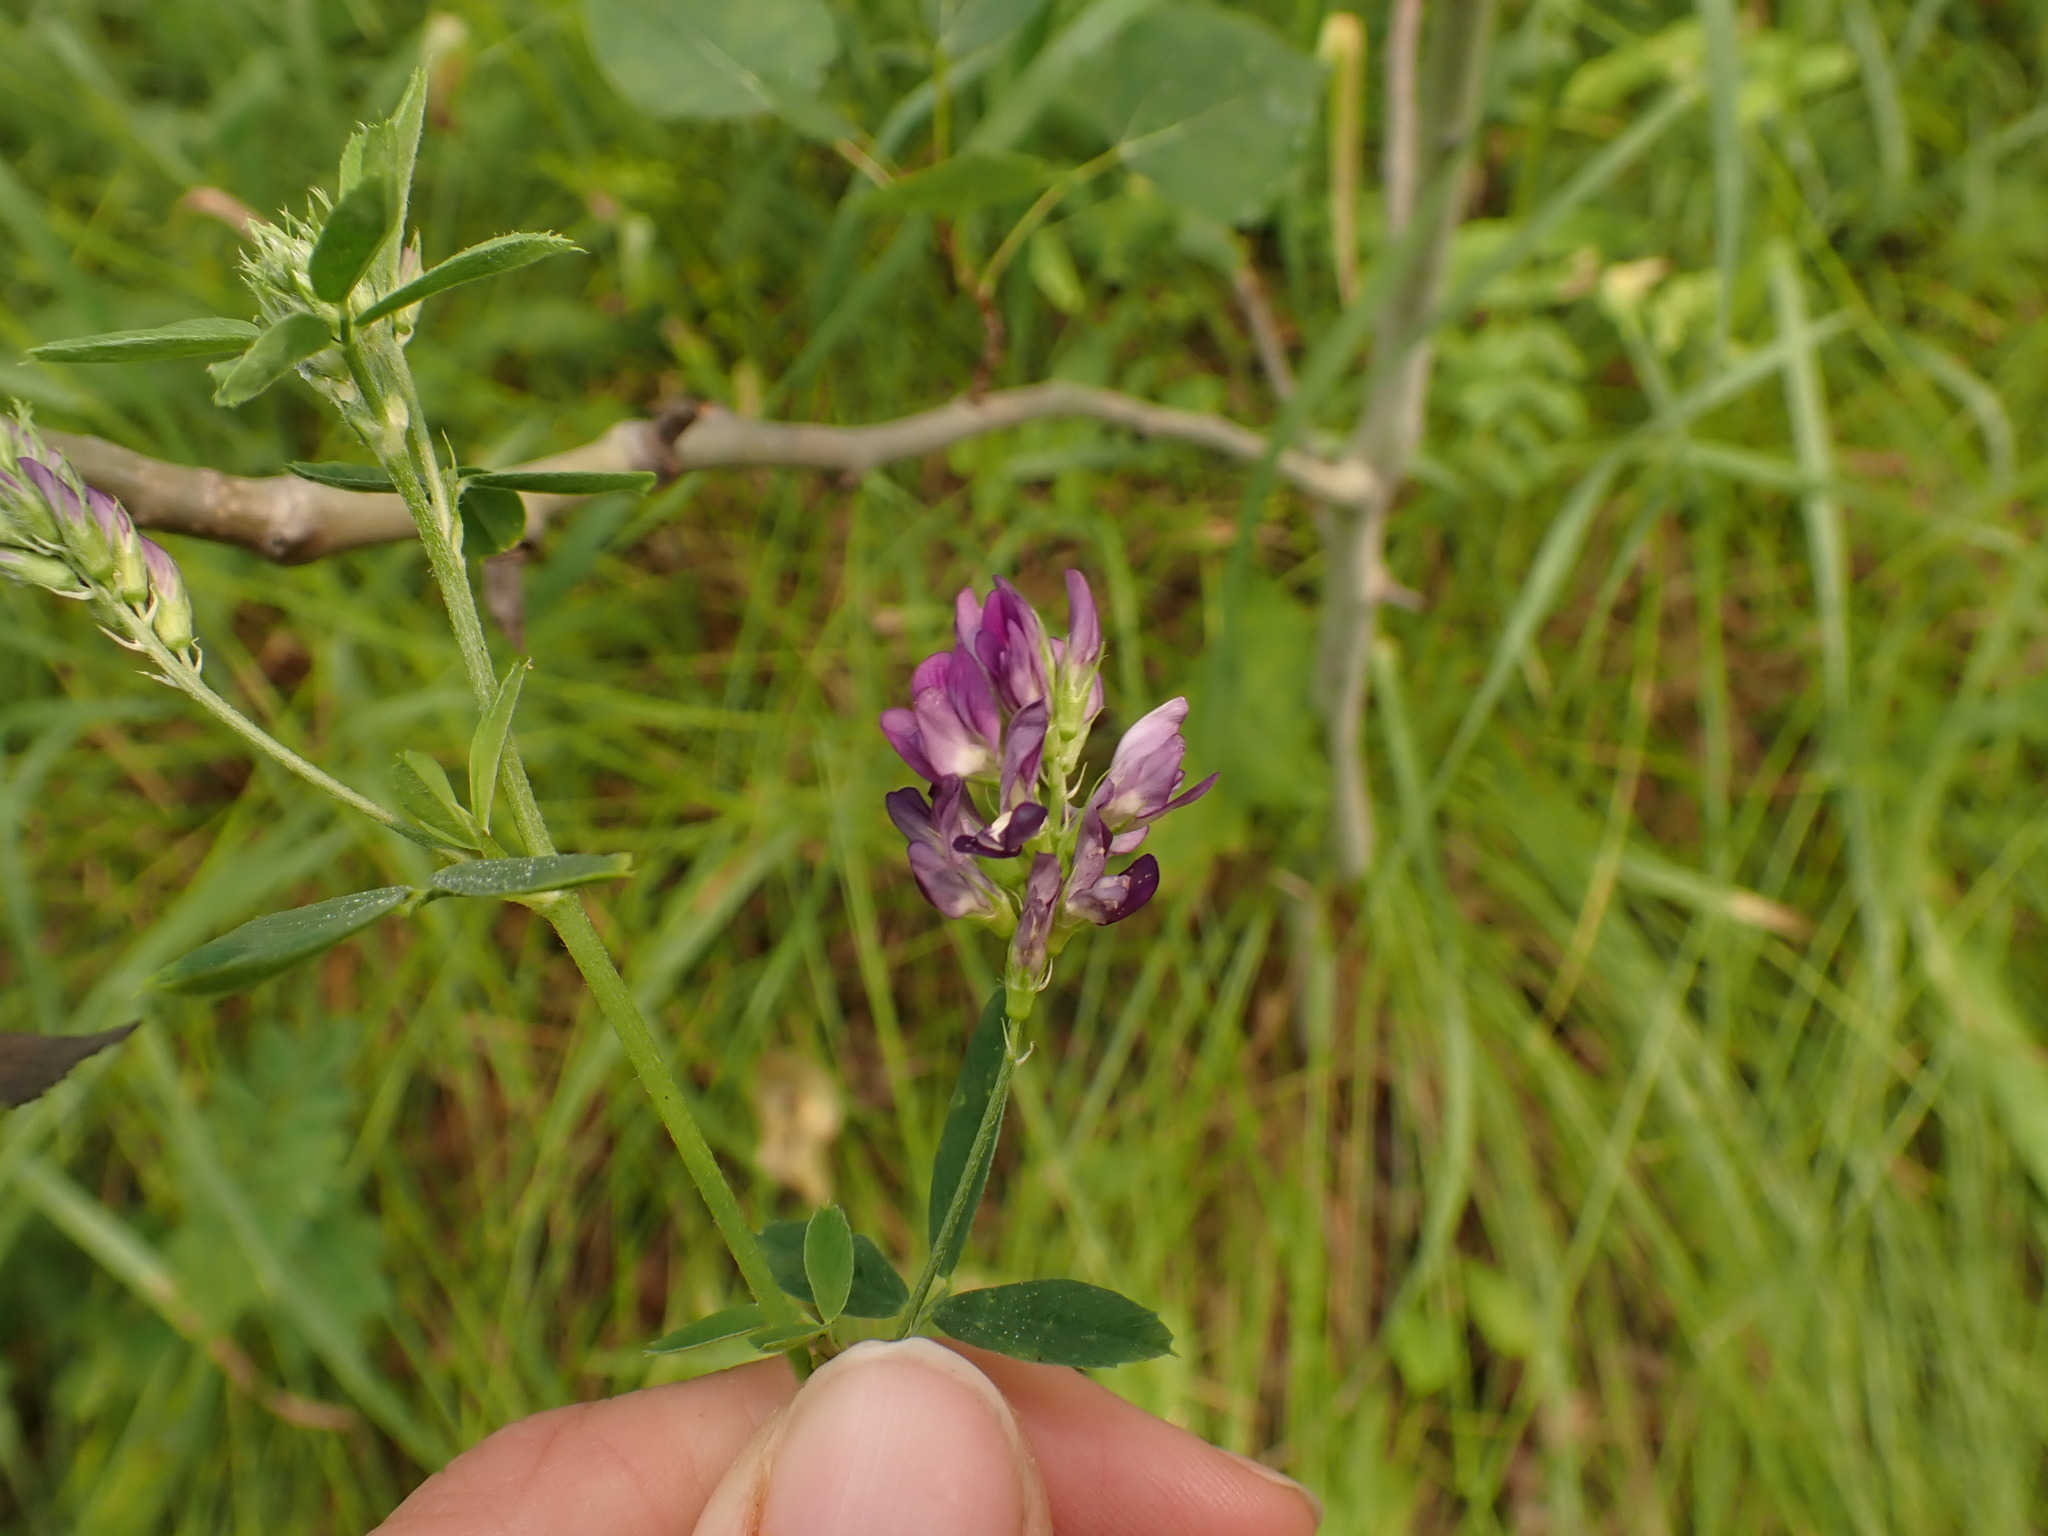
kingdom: Plantae
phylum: Tracheophyta
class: Magnoliopsida
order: Fabales
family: Fabaceae
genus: Medicago
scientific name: Medicago sativa
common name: Alfalfa
